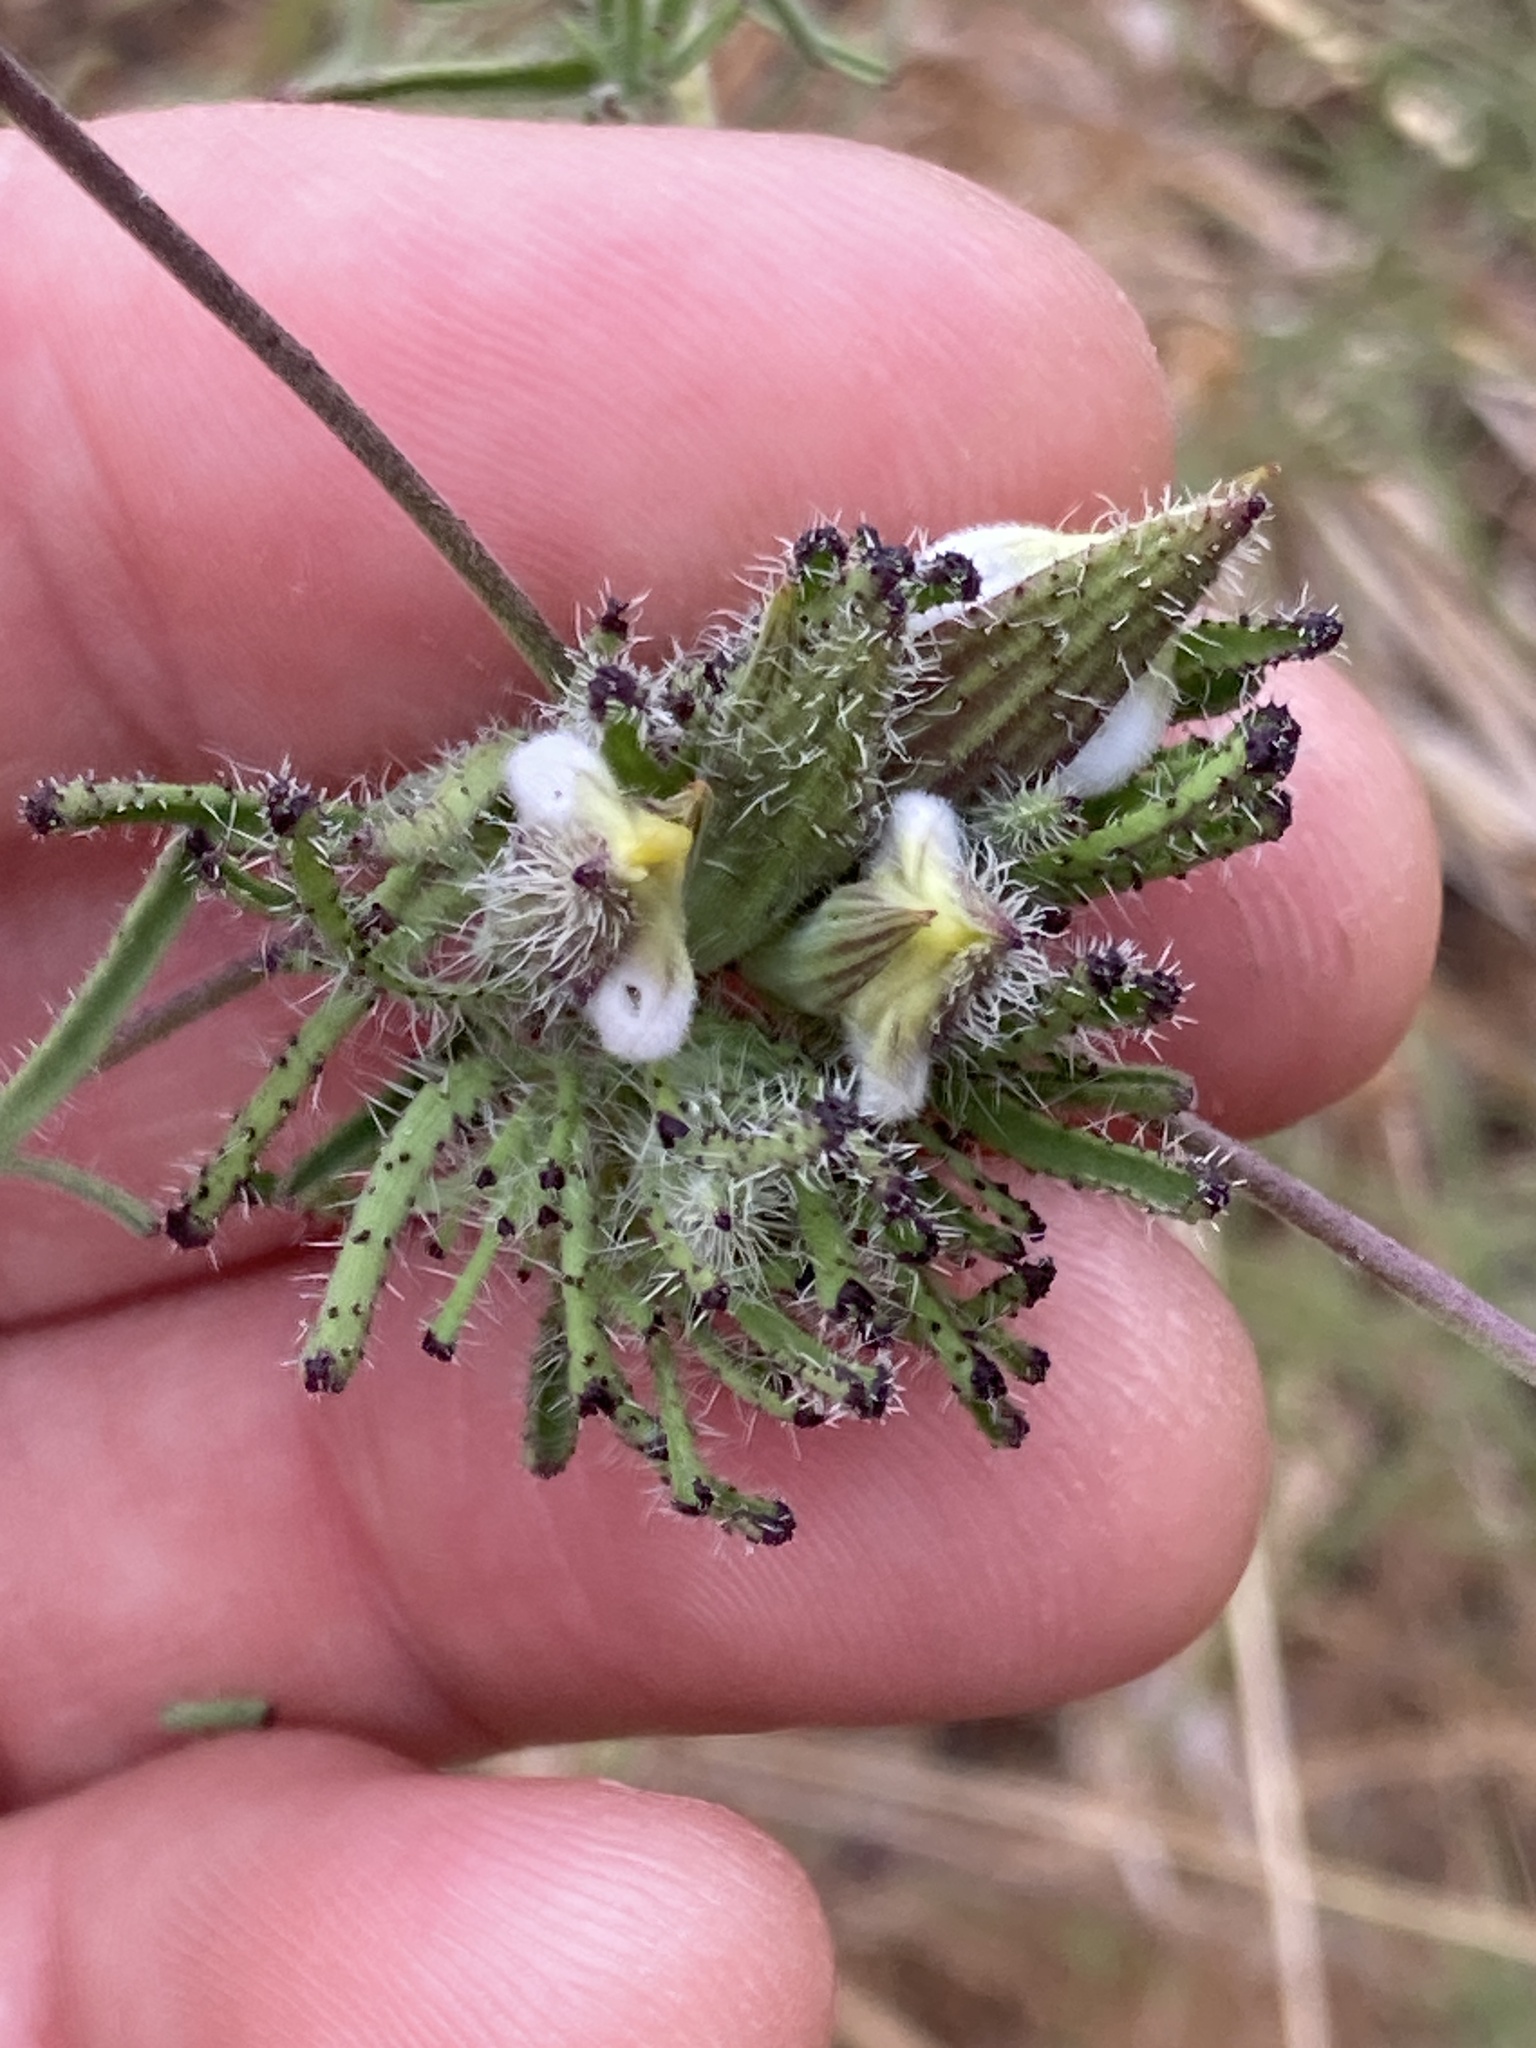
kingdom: Plantae
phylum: Tracheophyta
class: Magnoliopsida
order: Lamiales
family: Orobanchaceae
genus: Cordylanthus
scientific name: Cordylanthus rigidus
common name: Stiff-branch bird's-beak
